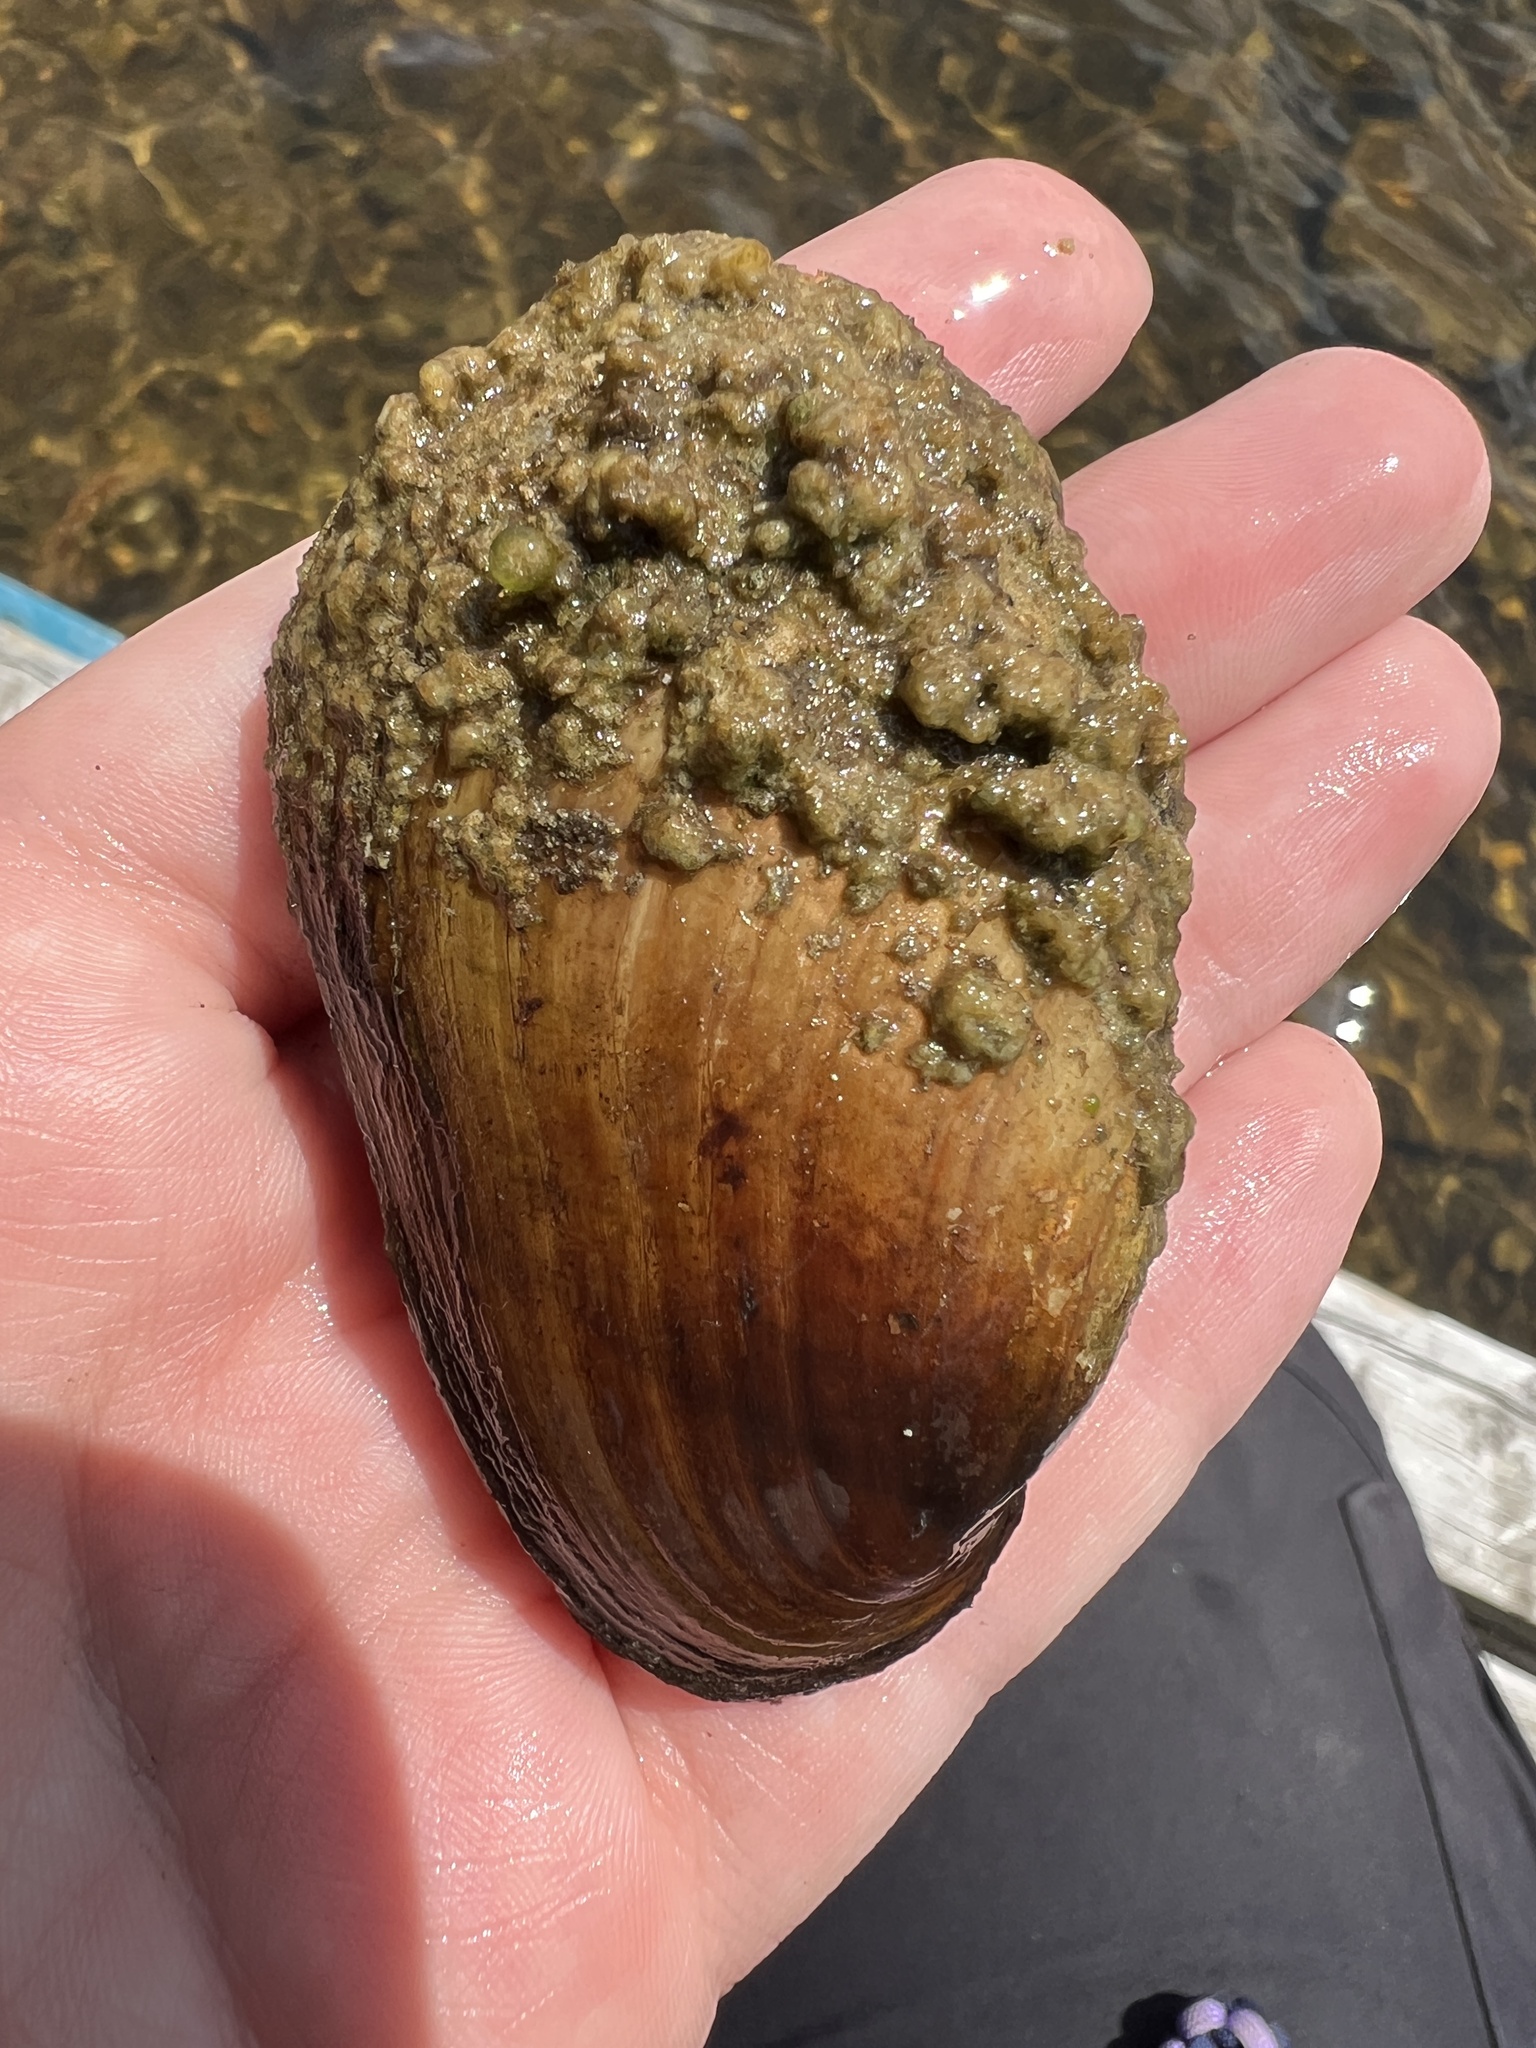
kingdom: Animalia
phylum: Mollusca
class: Bivalvia
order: Unionida
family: Unionidae
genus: Lampsilis
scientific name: Lampsilis siliquoidea
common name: Fatmucket
